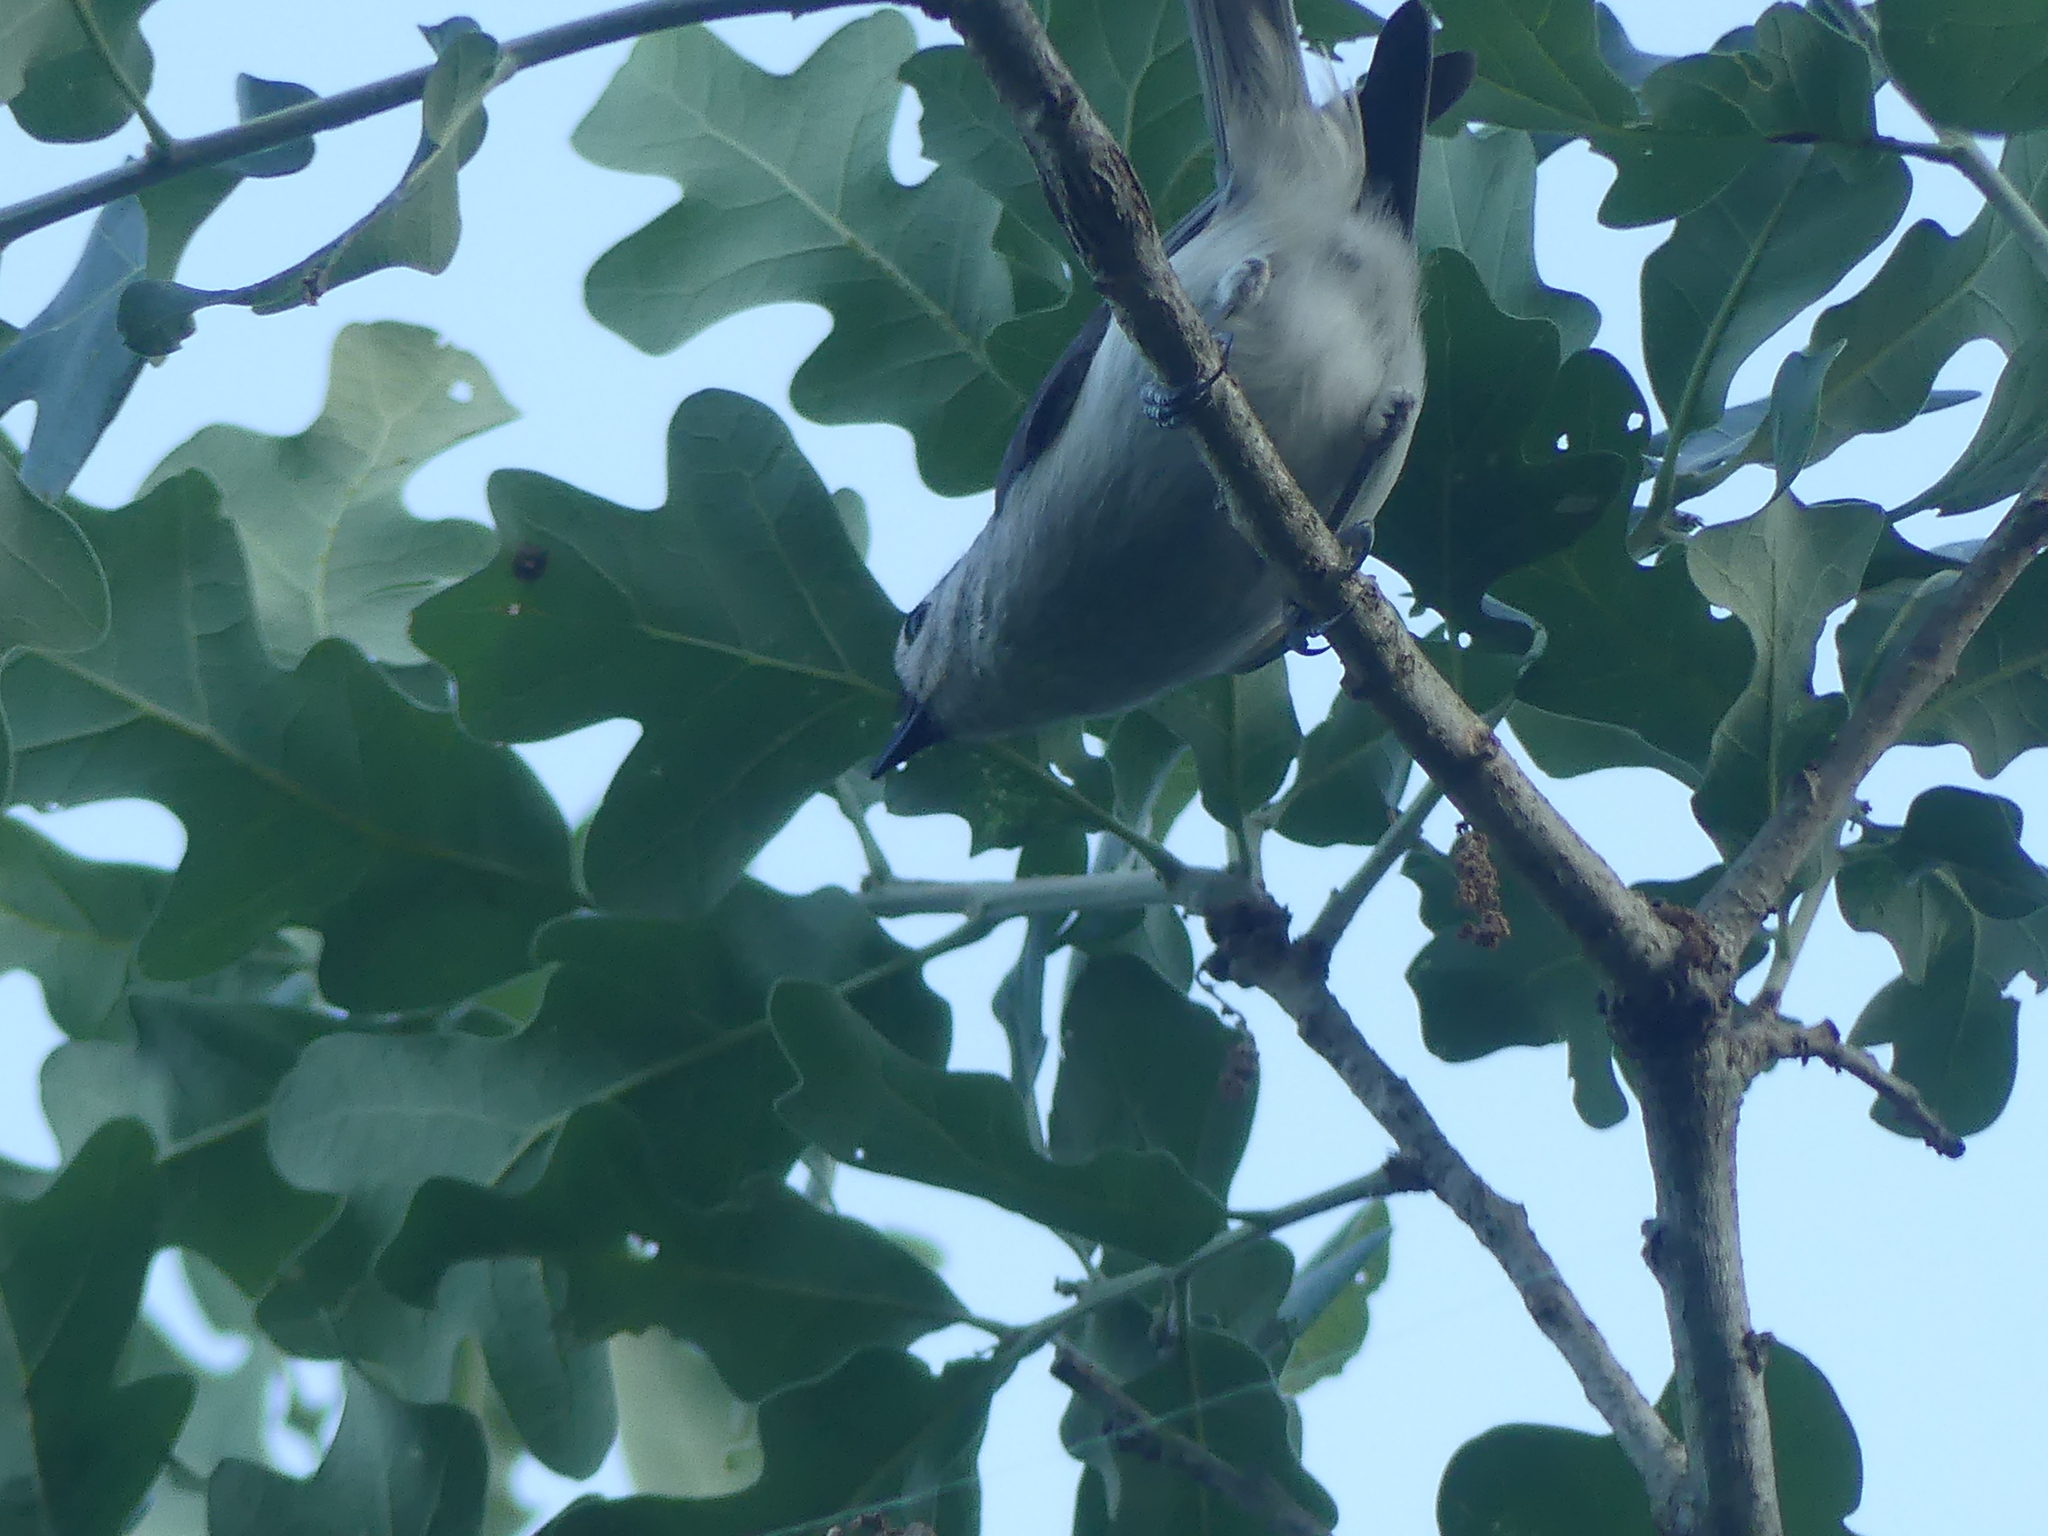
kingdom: Animalia
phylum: Chordata
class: Aves
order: Passeriformes
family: Paridae
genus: Baeolophus
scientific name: Baeolophus bicolor
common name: Tufted titmouse
